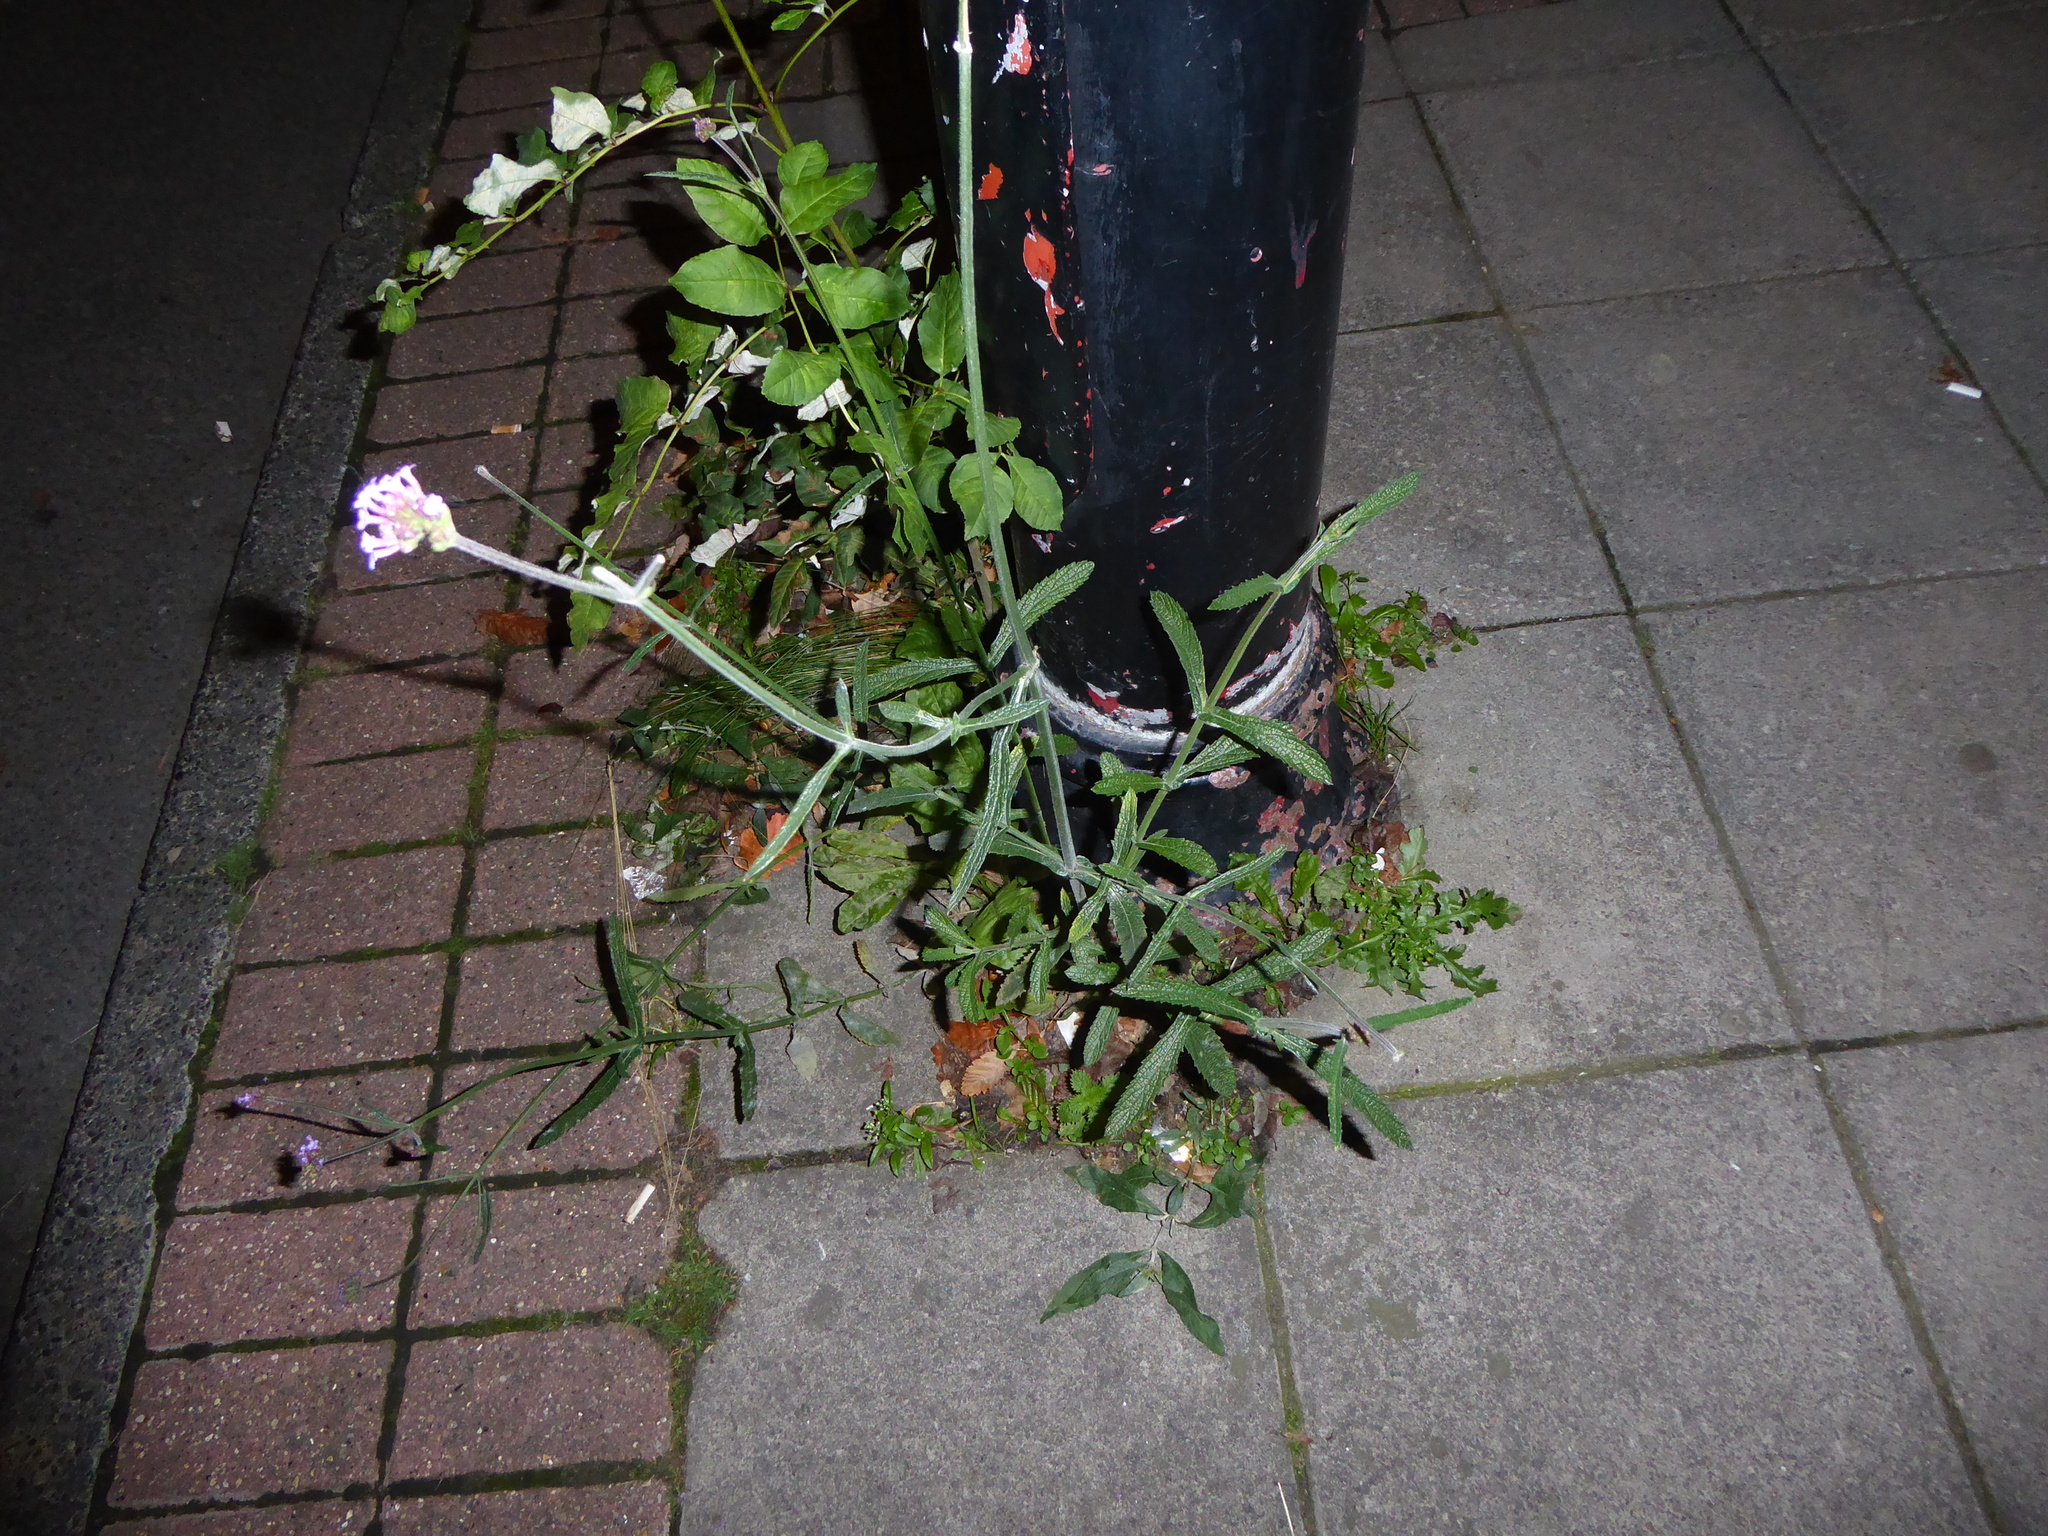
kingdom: Plantae
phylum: Tracheophyta
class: Magnoliopsida
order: Lamiales
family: Verbenaceae
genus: Verbena
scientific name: Verbena bonariensis
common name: Purpletop vervain
